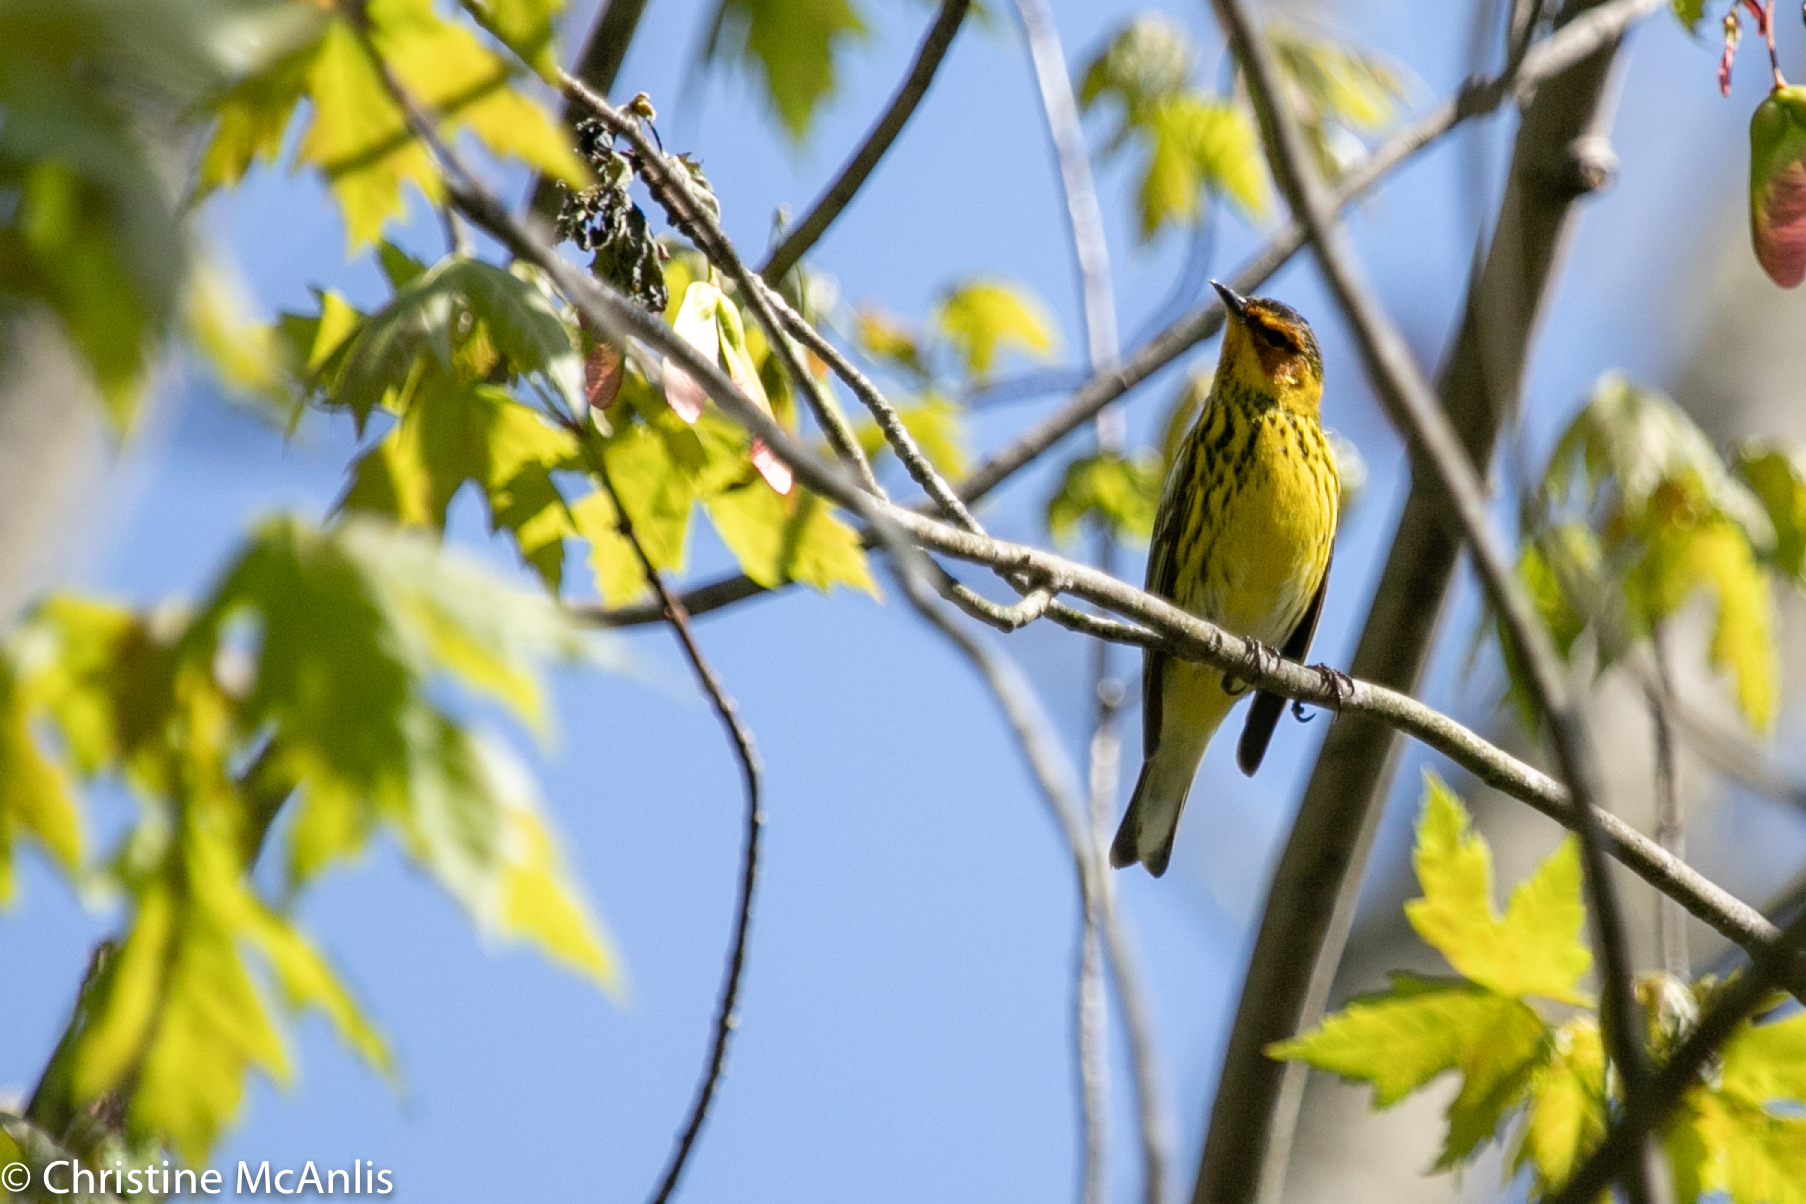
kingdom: Animalia
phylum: Chordata
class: Aves
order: Passeriformes
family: Parulidae
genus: Setophaga
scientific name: Setophaga tigrina
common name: Cape may warbler
